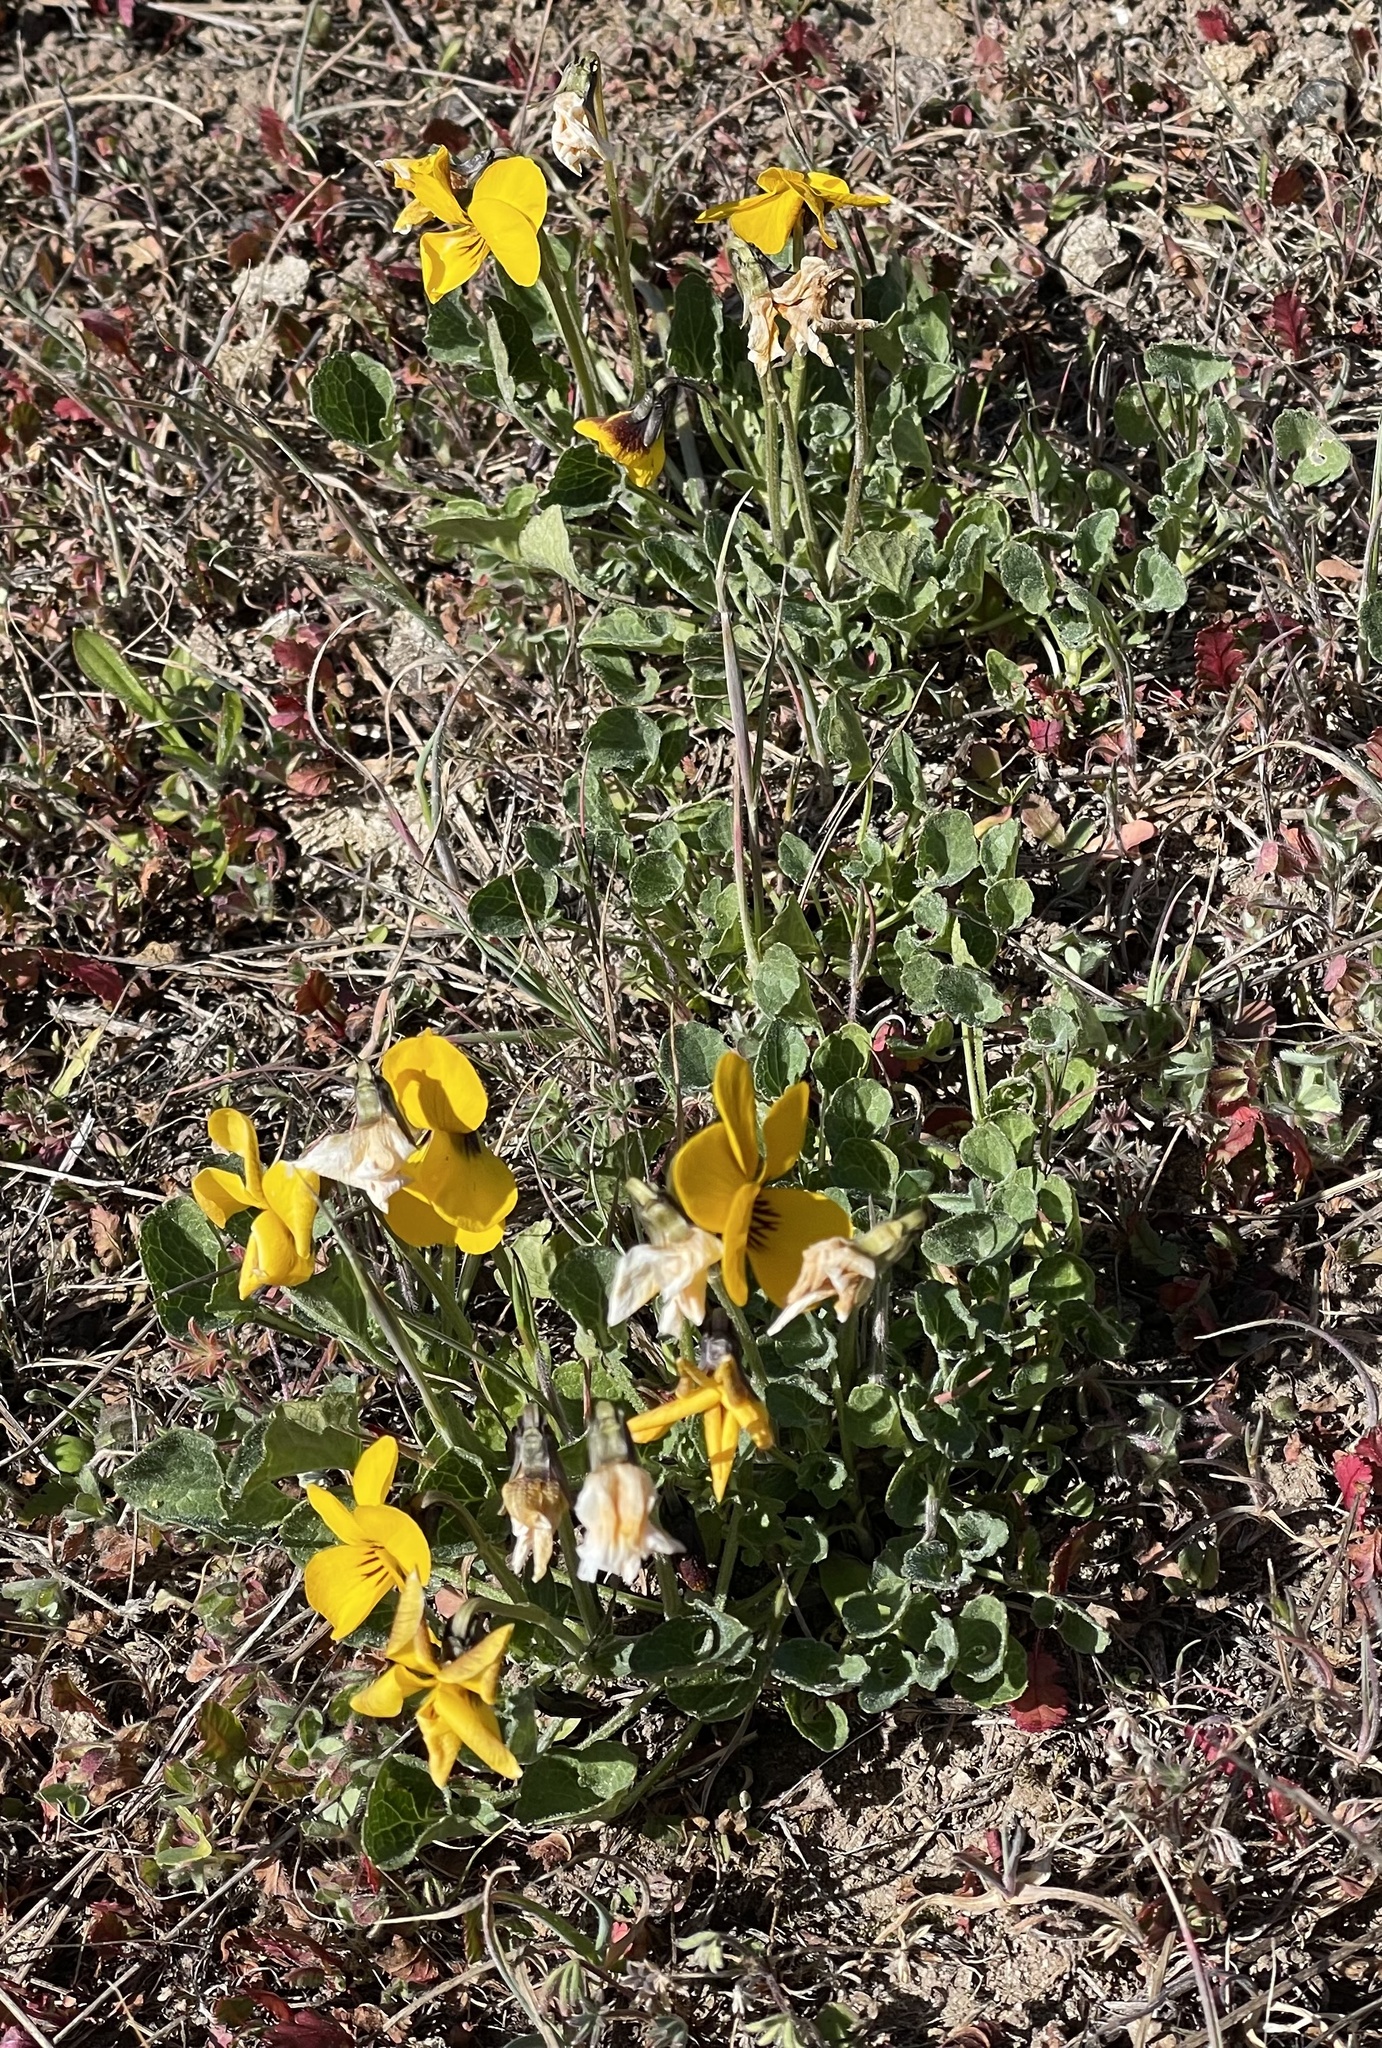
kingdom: Plantae
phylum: Tracheophyta
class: Magnoliopsida
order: Malpighiales
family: Violaceae
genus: Viola
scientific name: Viola pedunculata
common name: California golden violet
